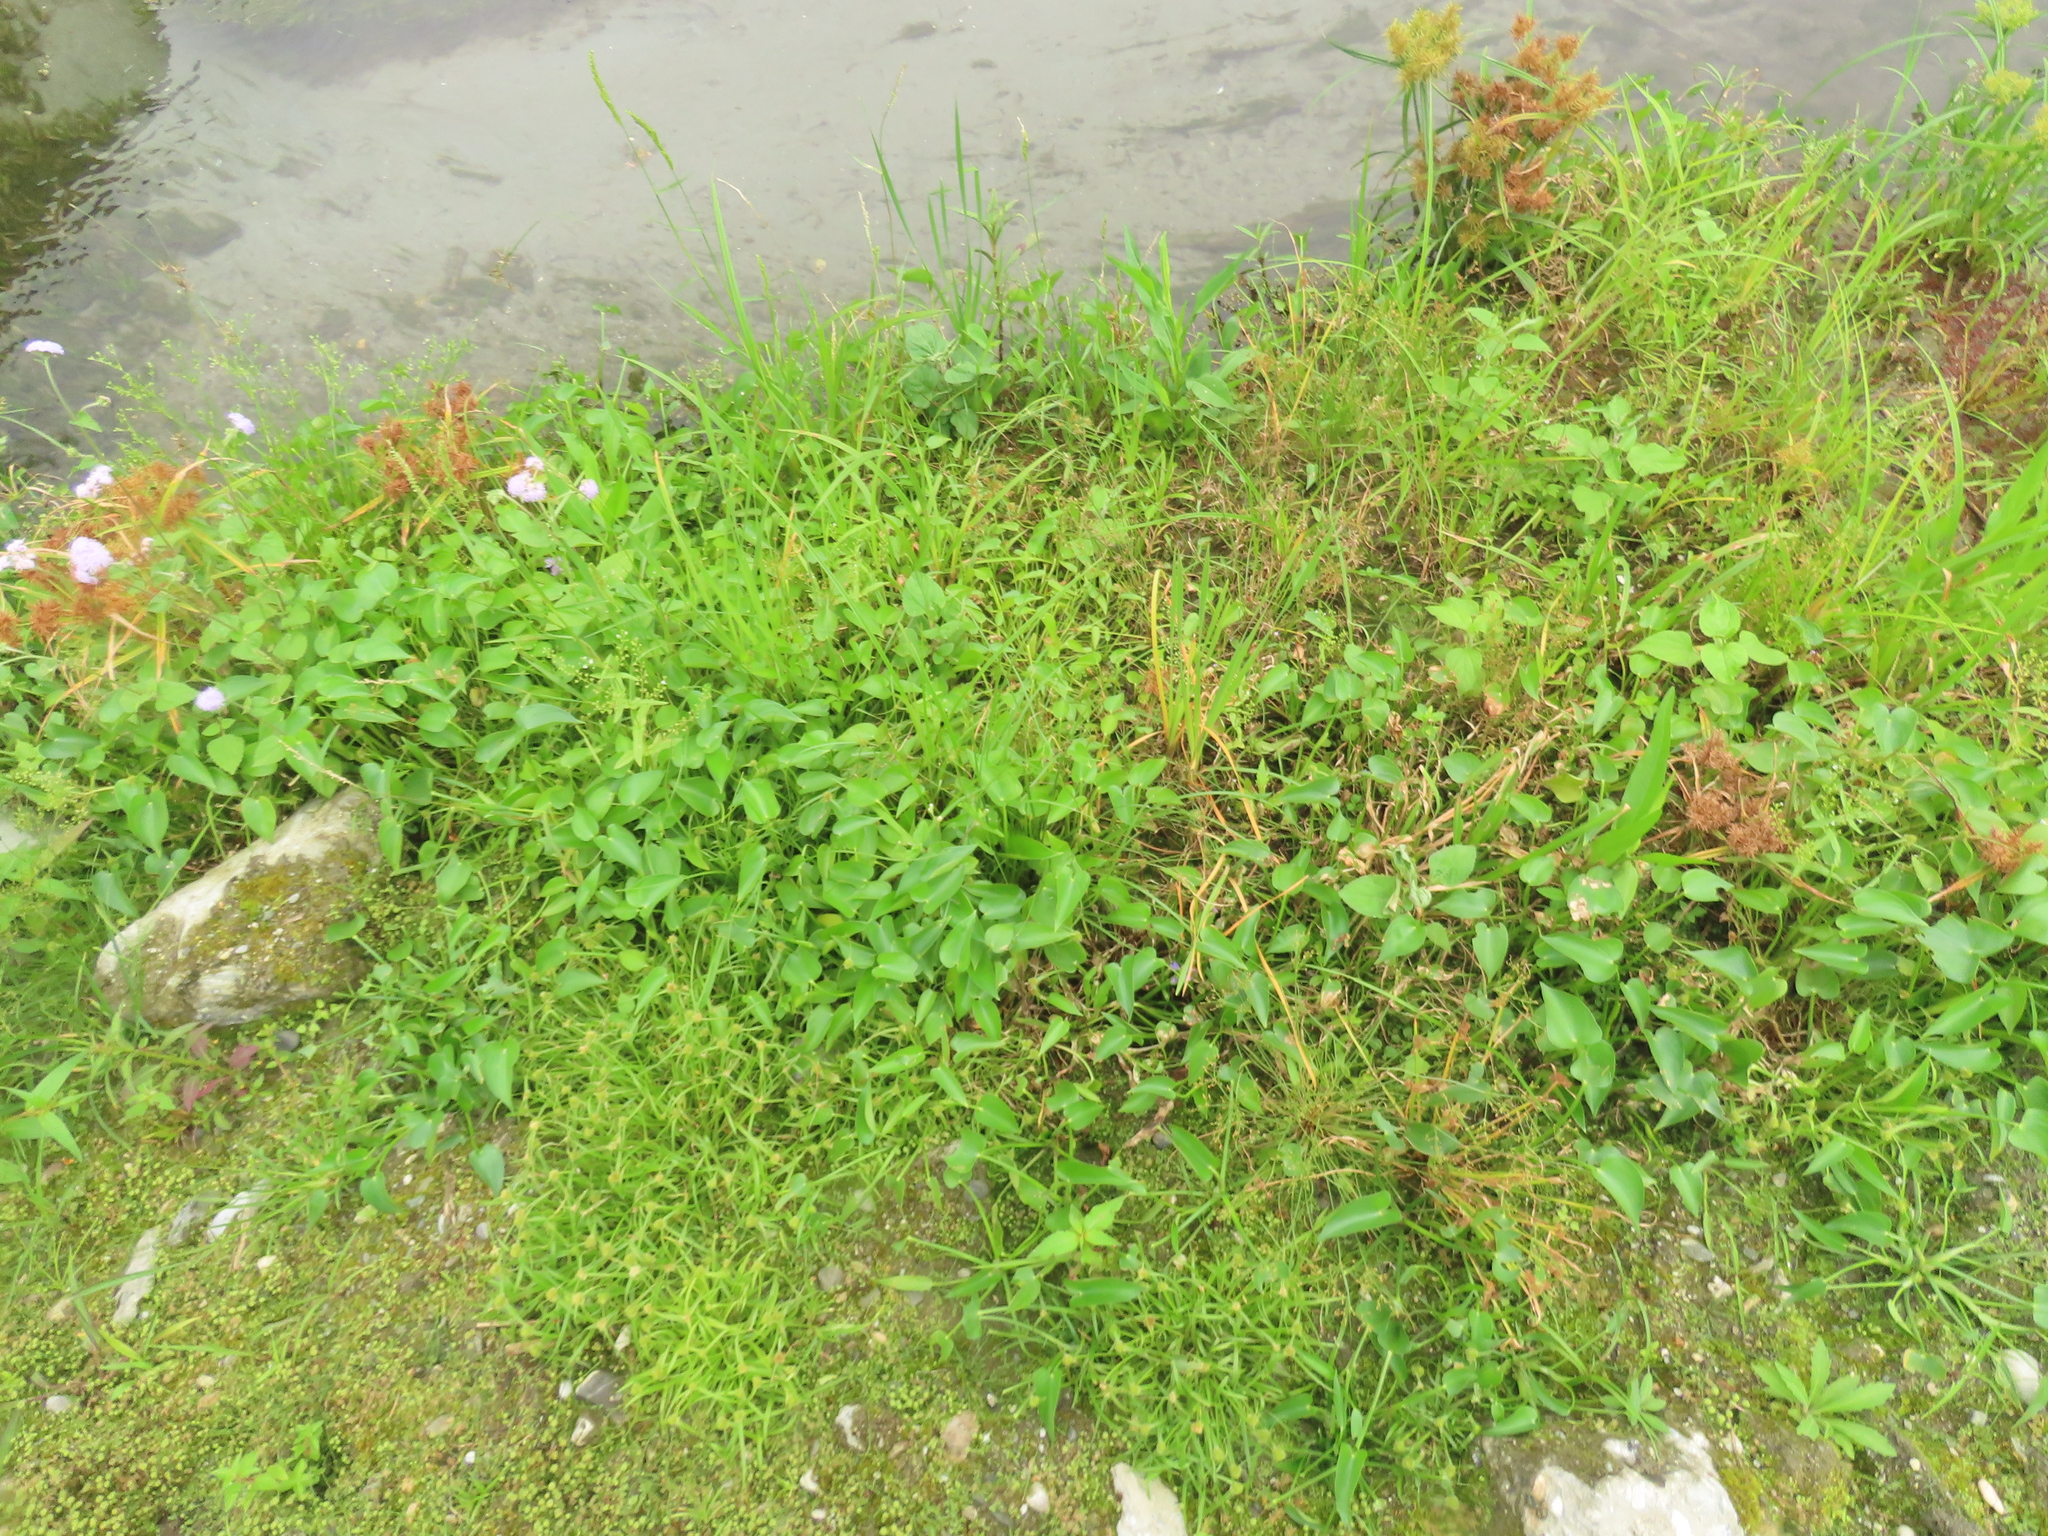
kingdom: Plantae
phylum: Tracheophyta
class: Liliopsida
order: Commelinales
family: Pontederiaceae
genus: Pontederia
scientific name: Pontederia vaginalis
